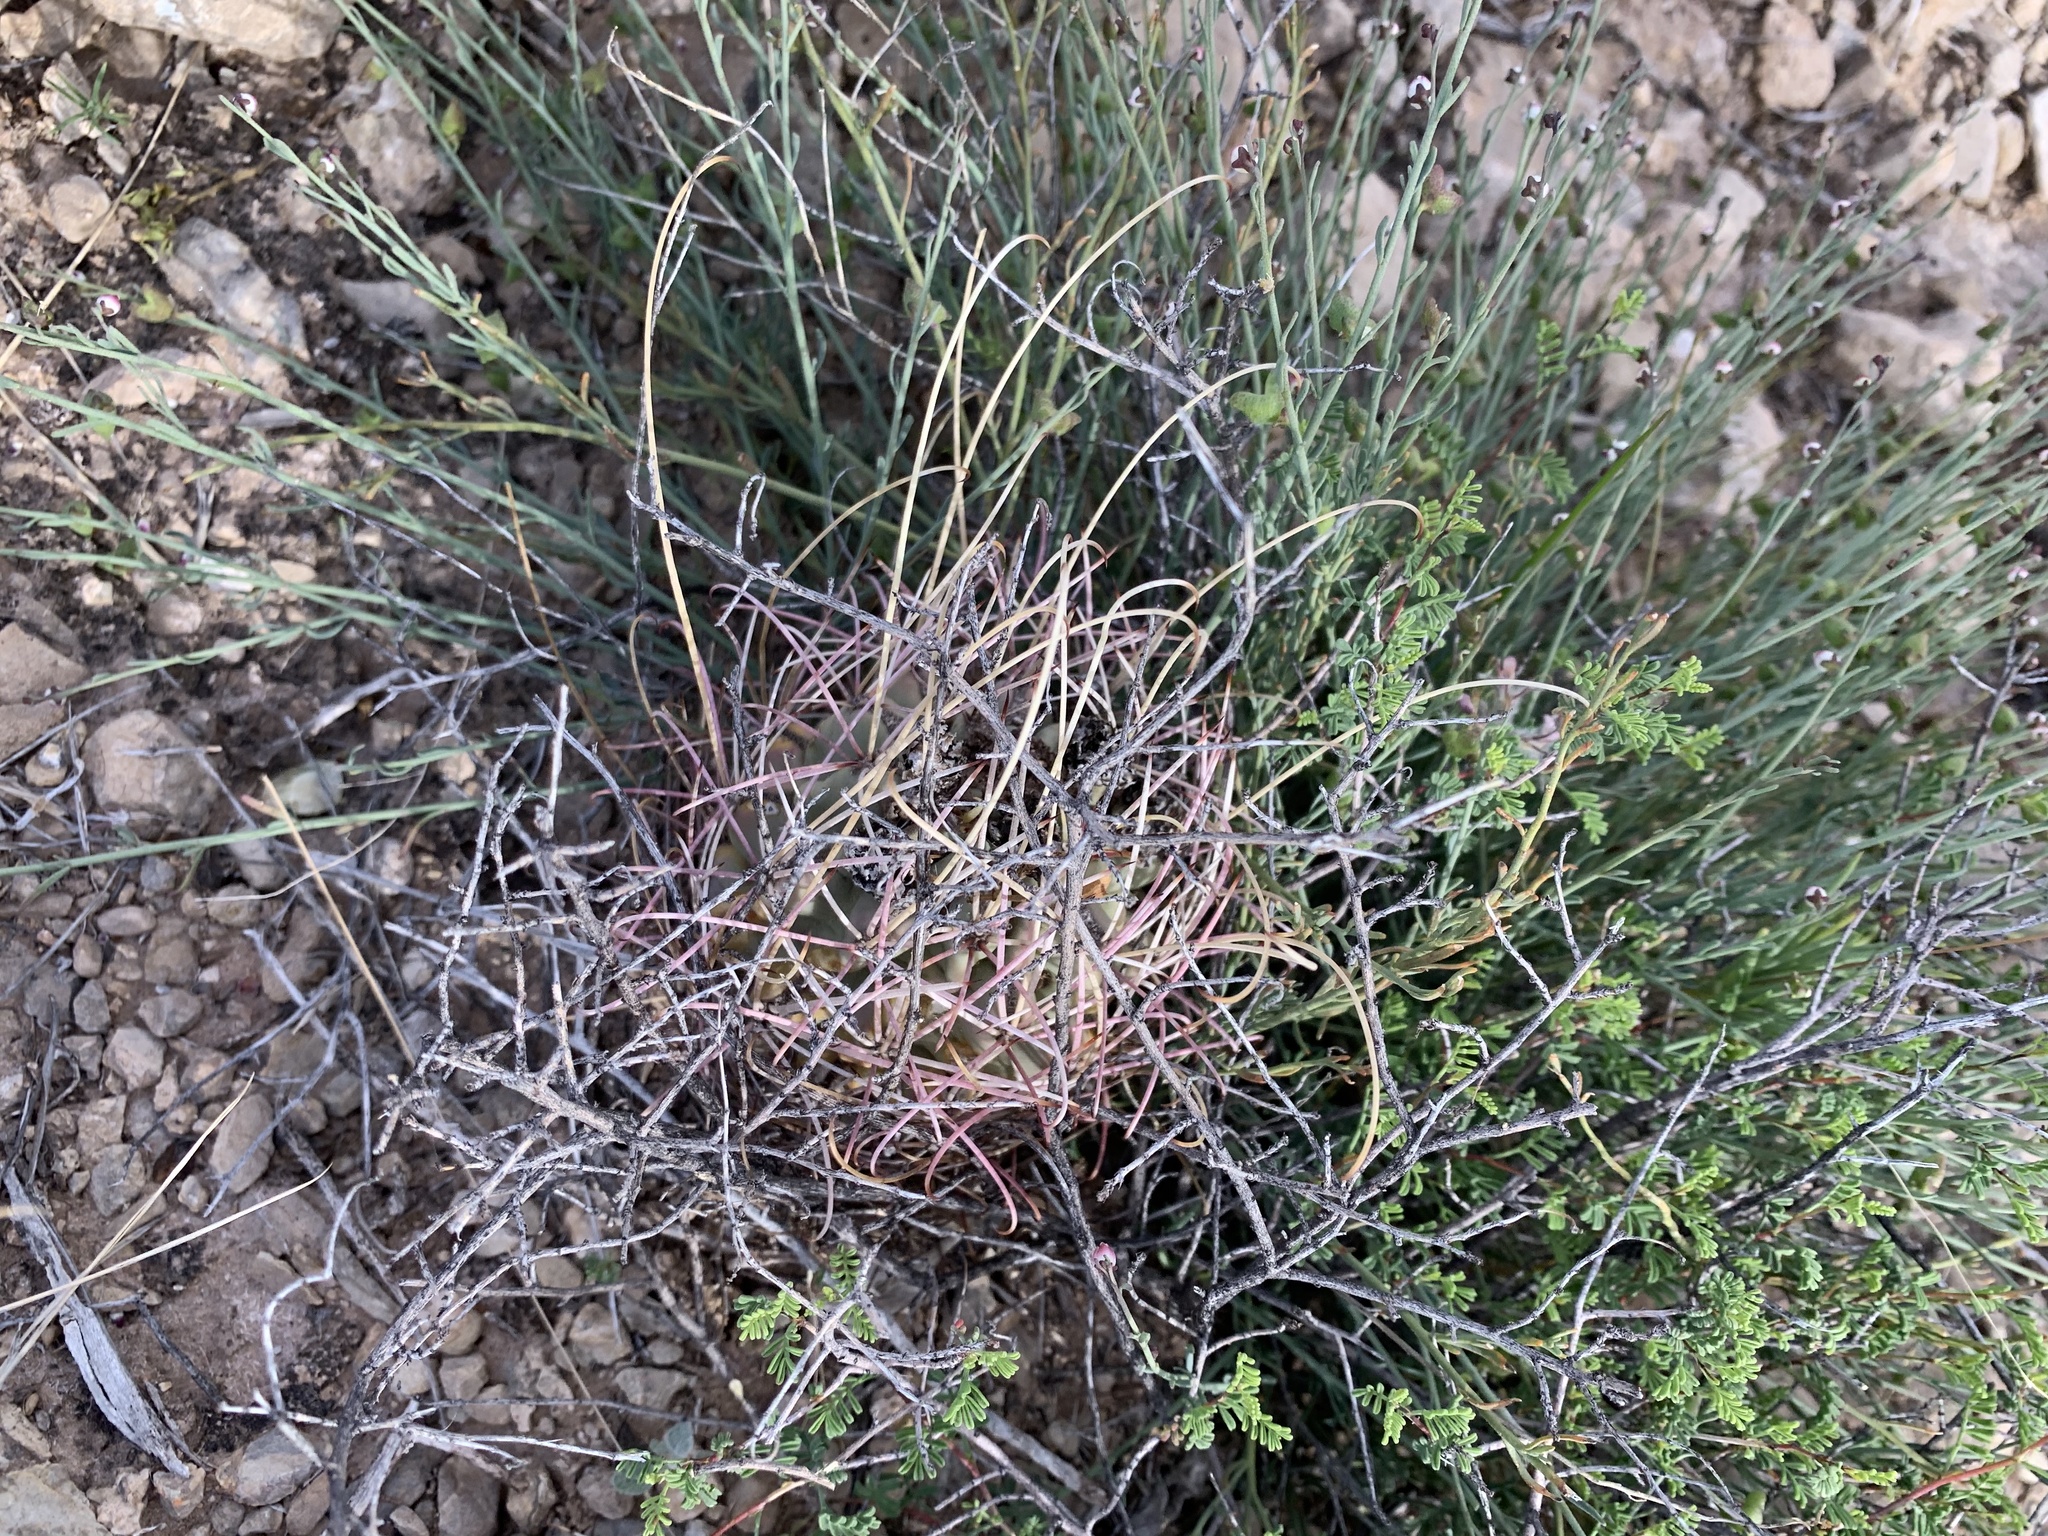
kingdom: Plantae
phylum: Tracheophyta
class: Magnoliopsida
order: Caryophyllales
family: Cactaceae
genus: Ferocactus
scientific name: Ferocactus uncinatus
